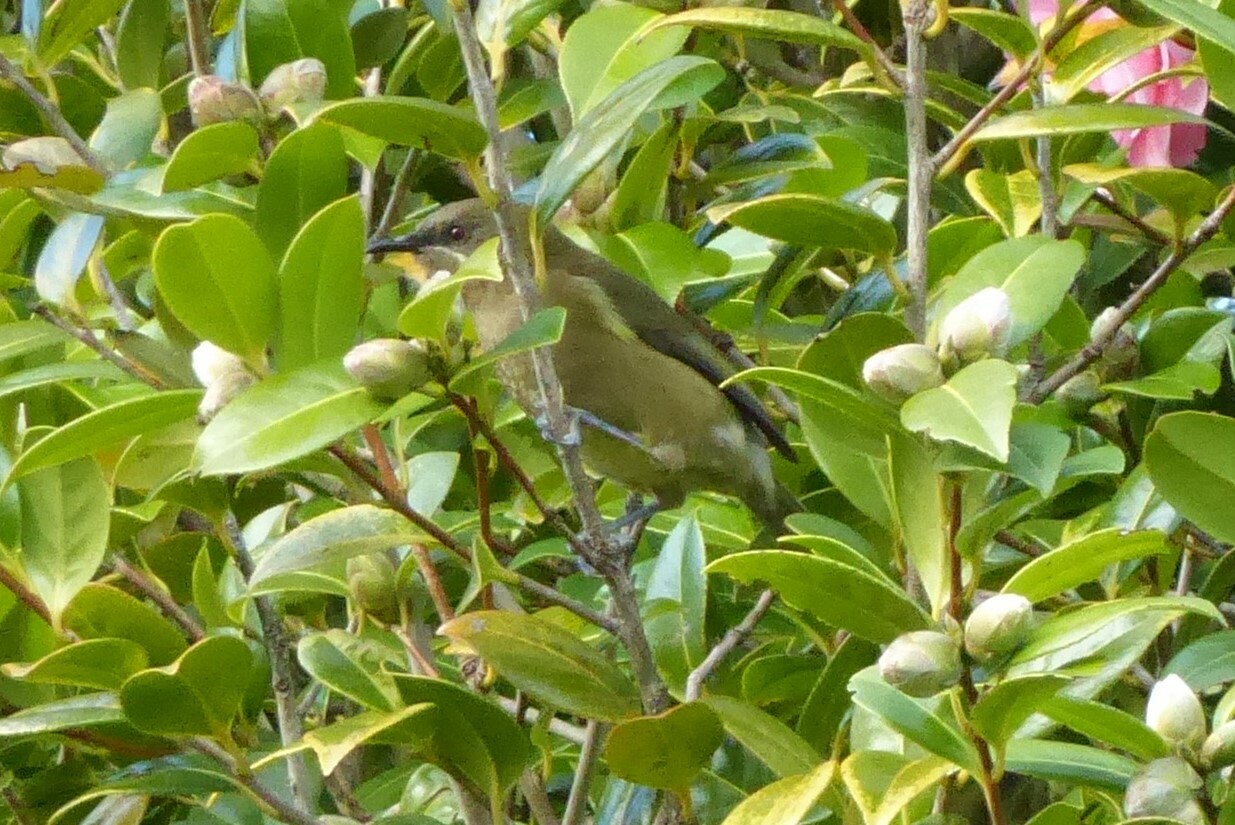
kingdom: Animalia
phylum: Chordata
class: Aves
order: Passeriformes
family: Meliphagidae
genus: Anthornis
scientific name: Anthornis melanura
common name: New zealand bellbird
